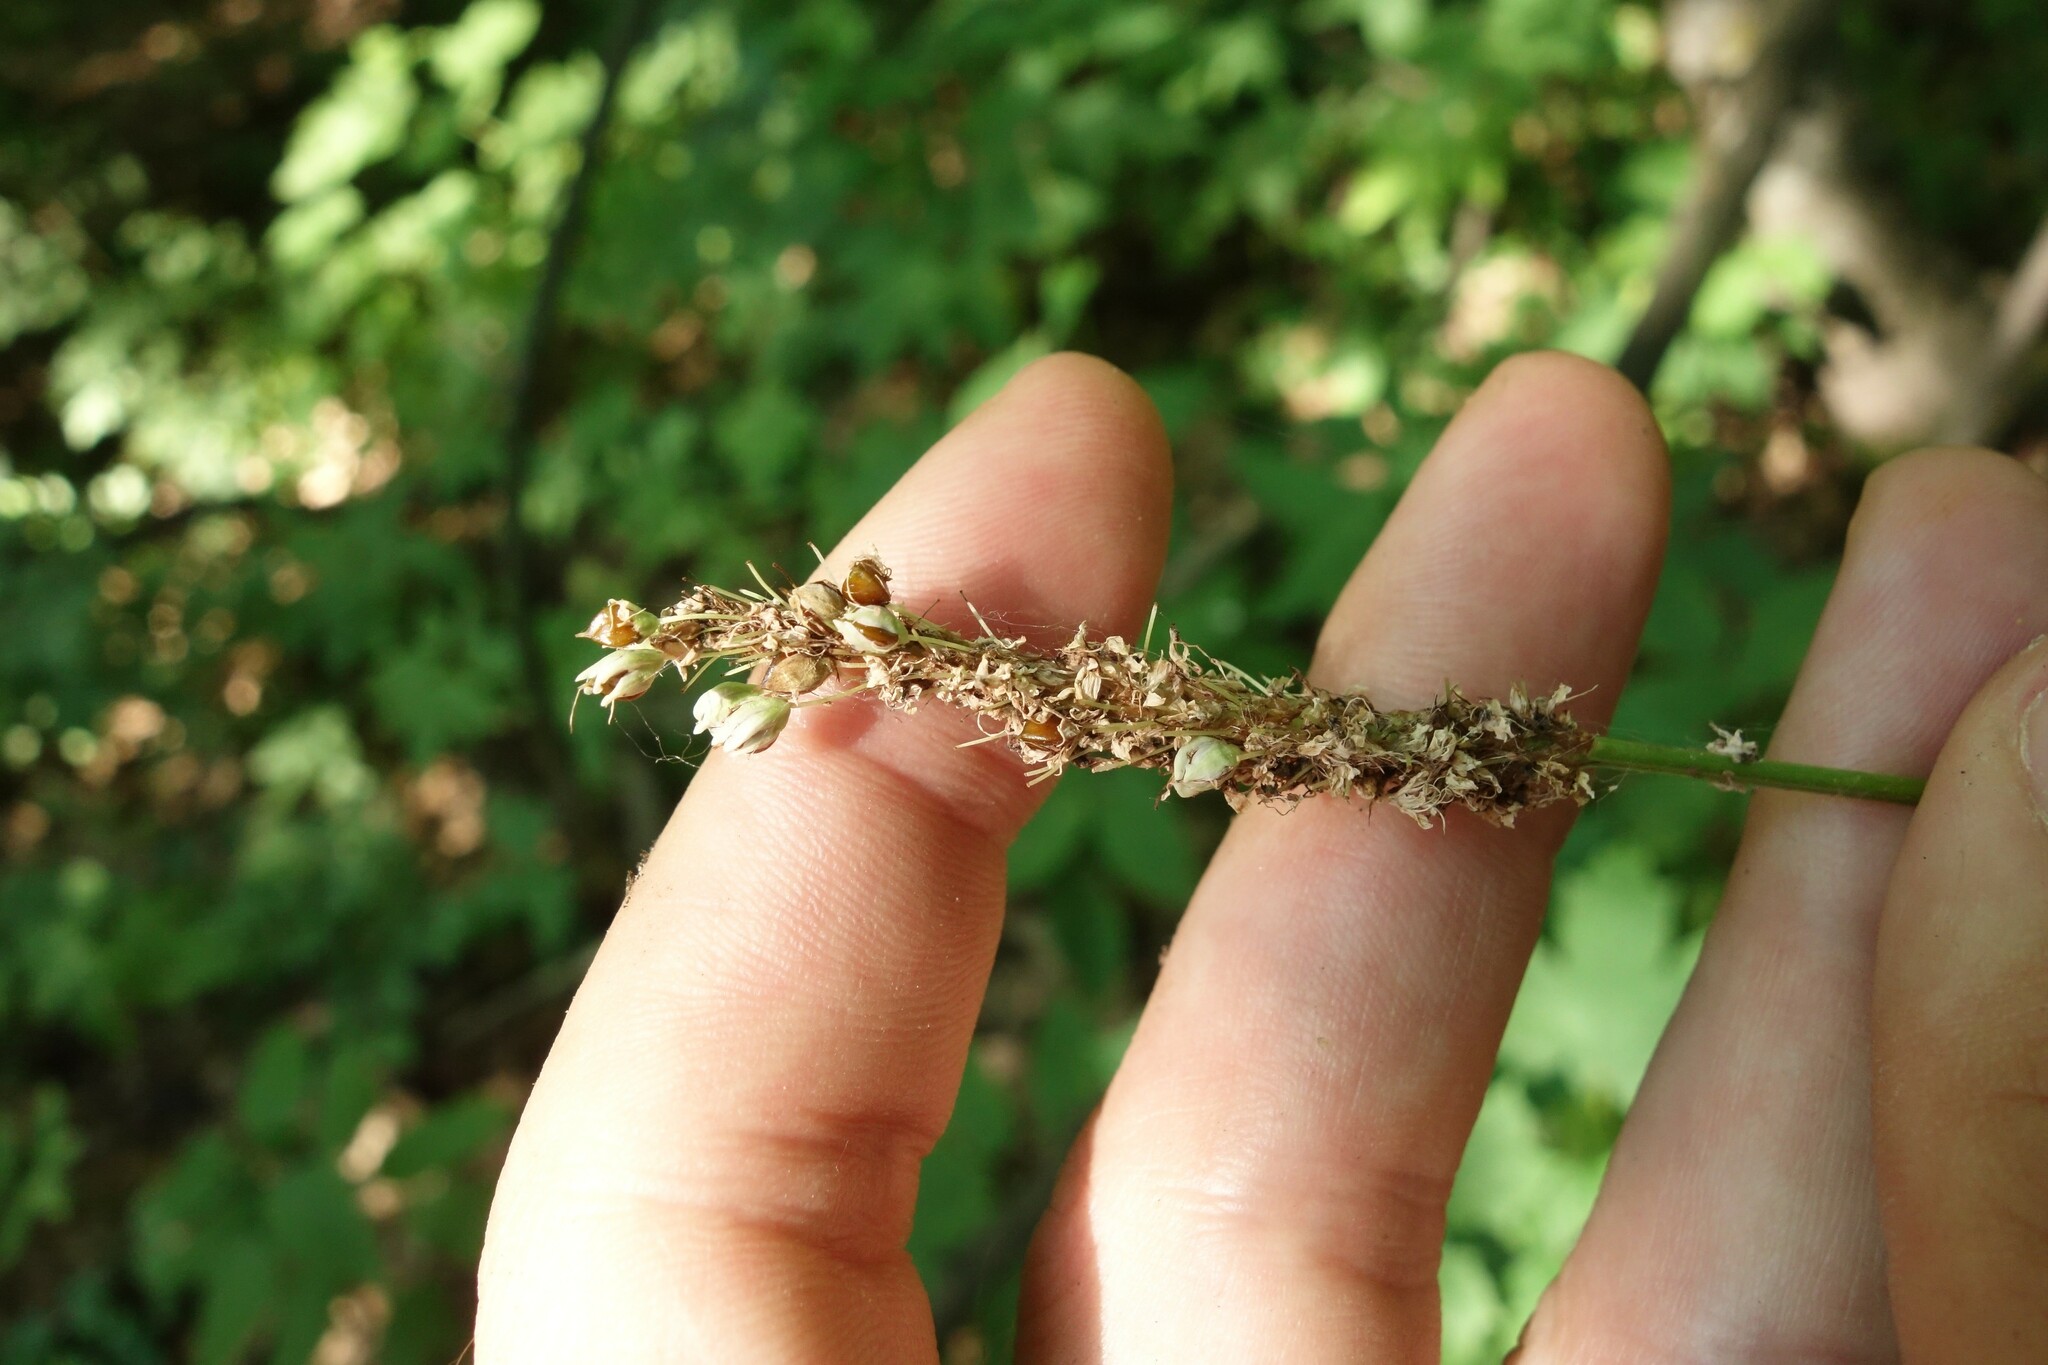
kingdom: Plantae
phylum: Tracheophyta
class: Magnoliopsida
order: Caryophyllales
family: Polygonaceae
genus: Bistorta
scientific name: Bistorta officinalis
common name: Common bistort
